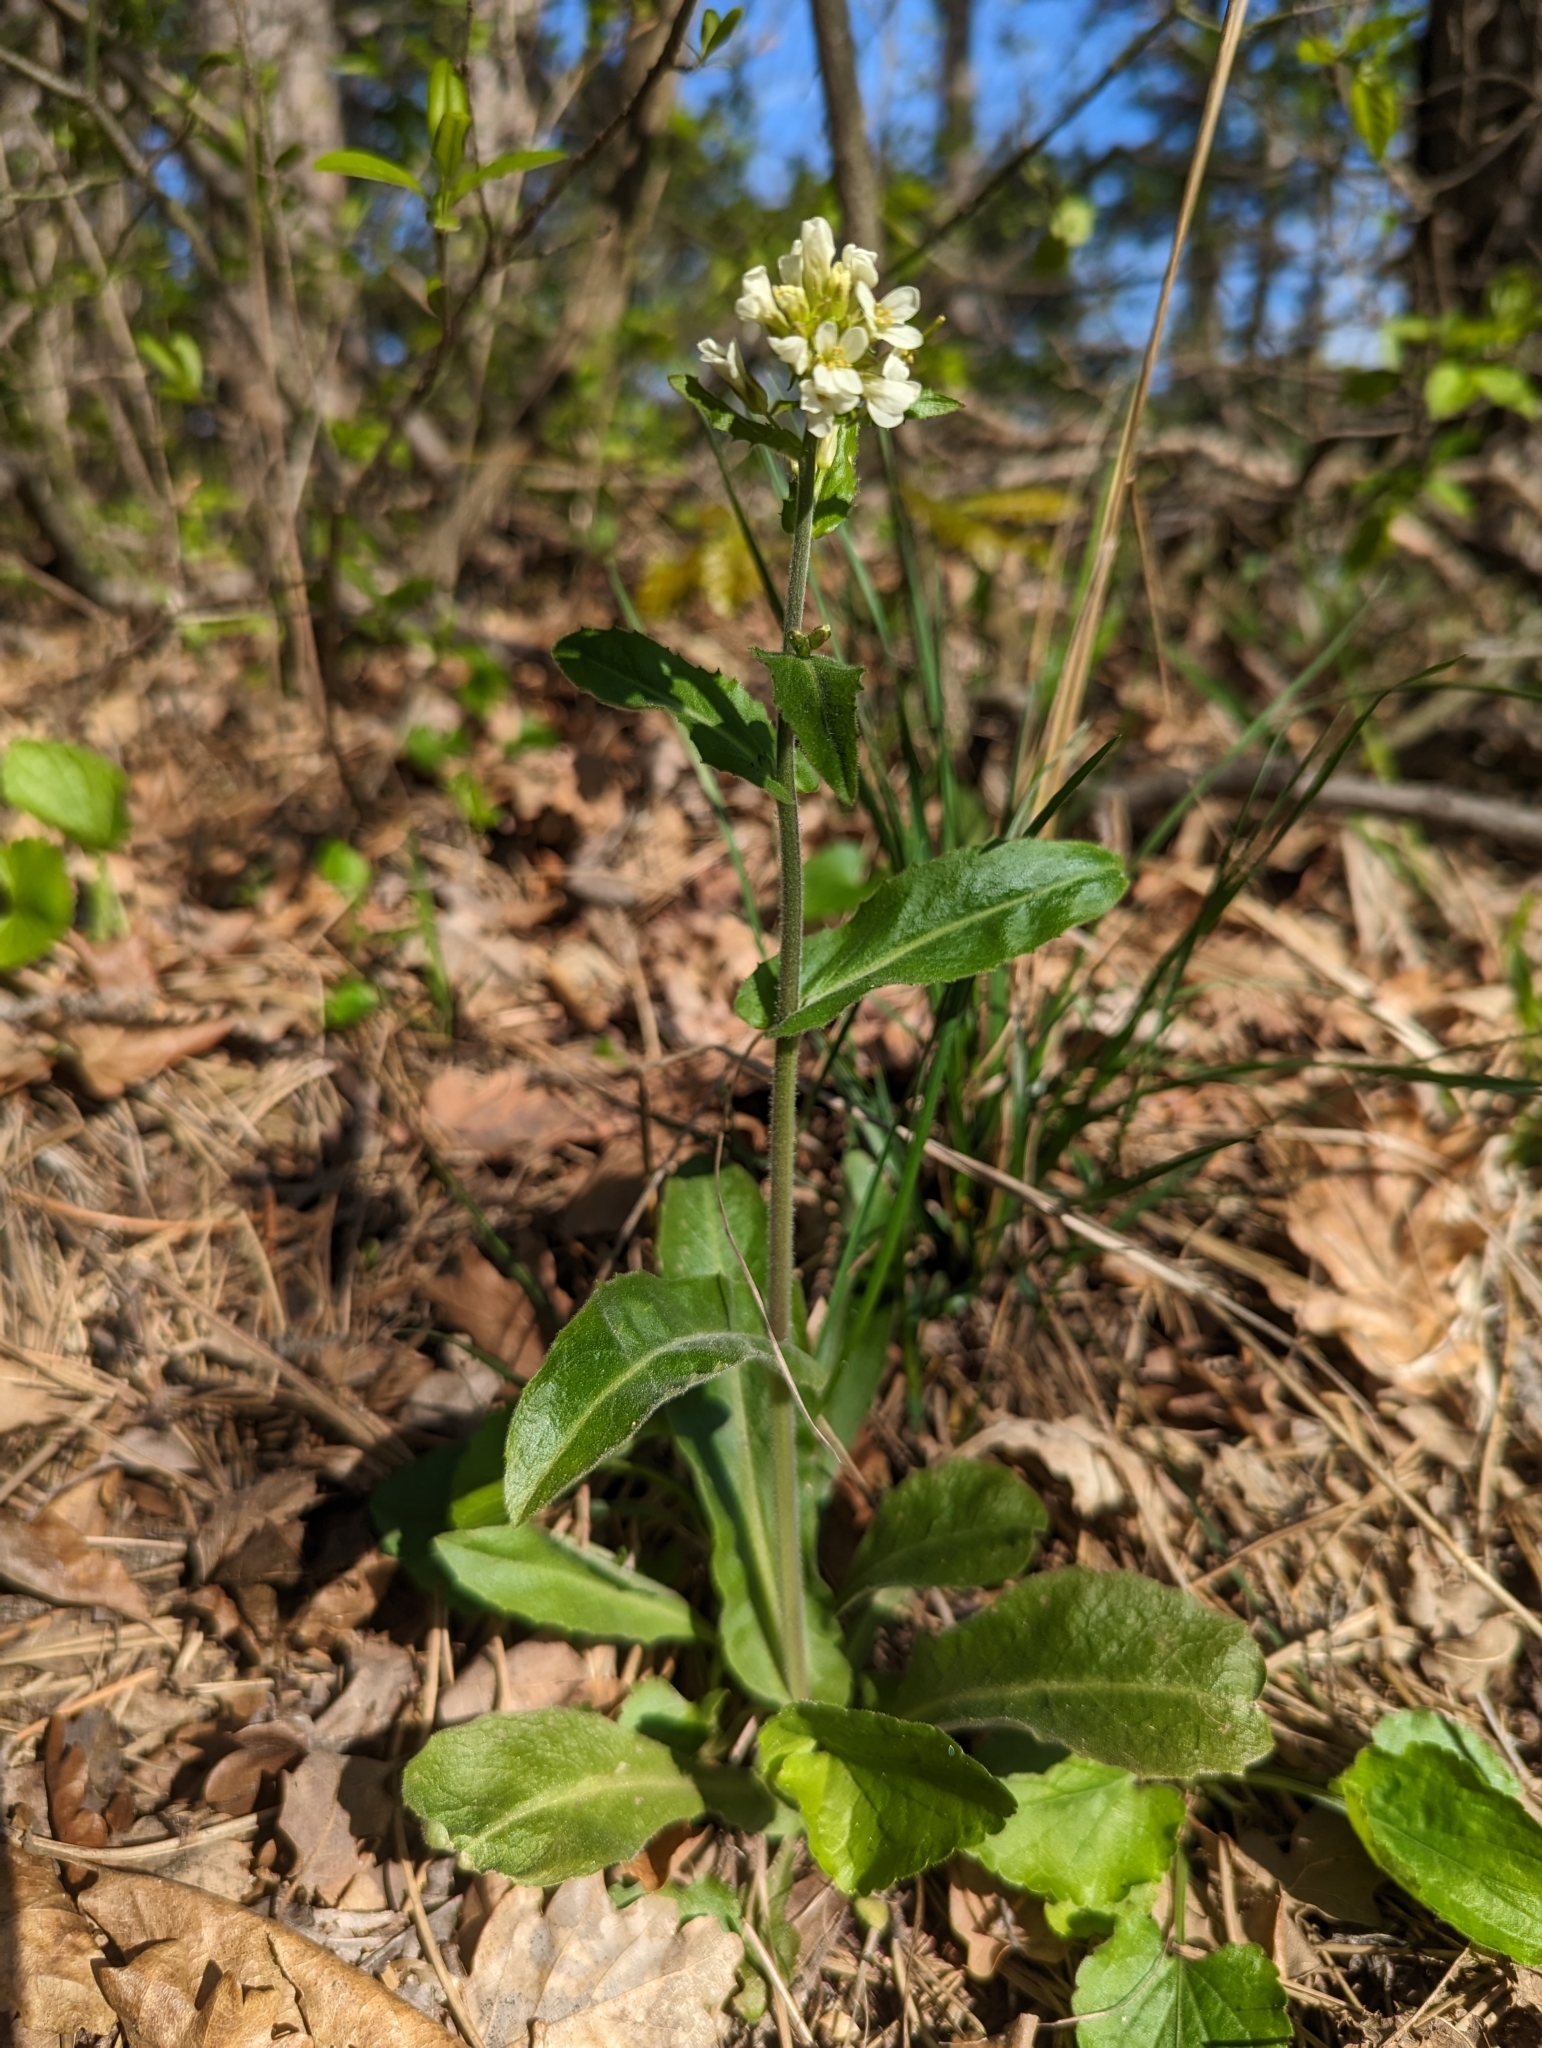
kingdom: Plantae
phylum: Tracheophyta
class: Magnoliopsida
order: Brassicales
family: Brassicaceae
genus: Pseudoturritis
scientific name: Pseudoturritis turrita
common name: Tower cress
